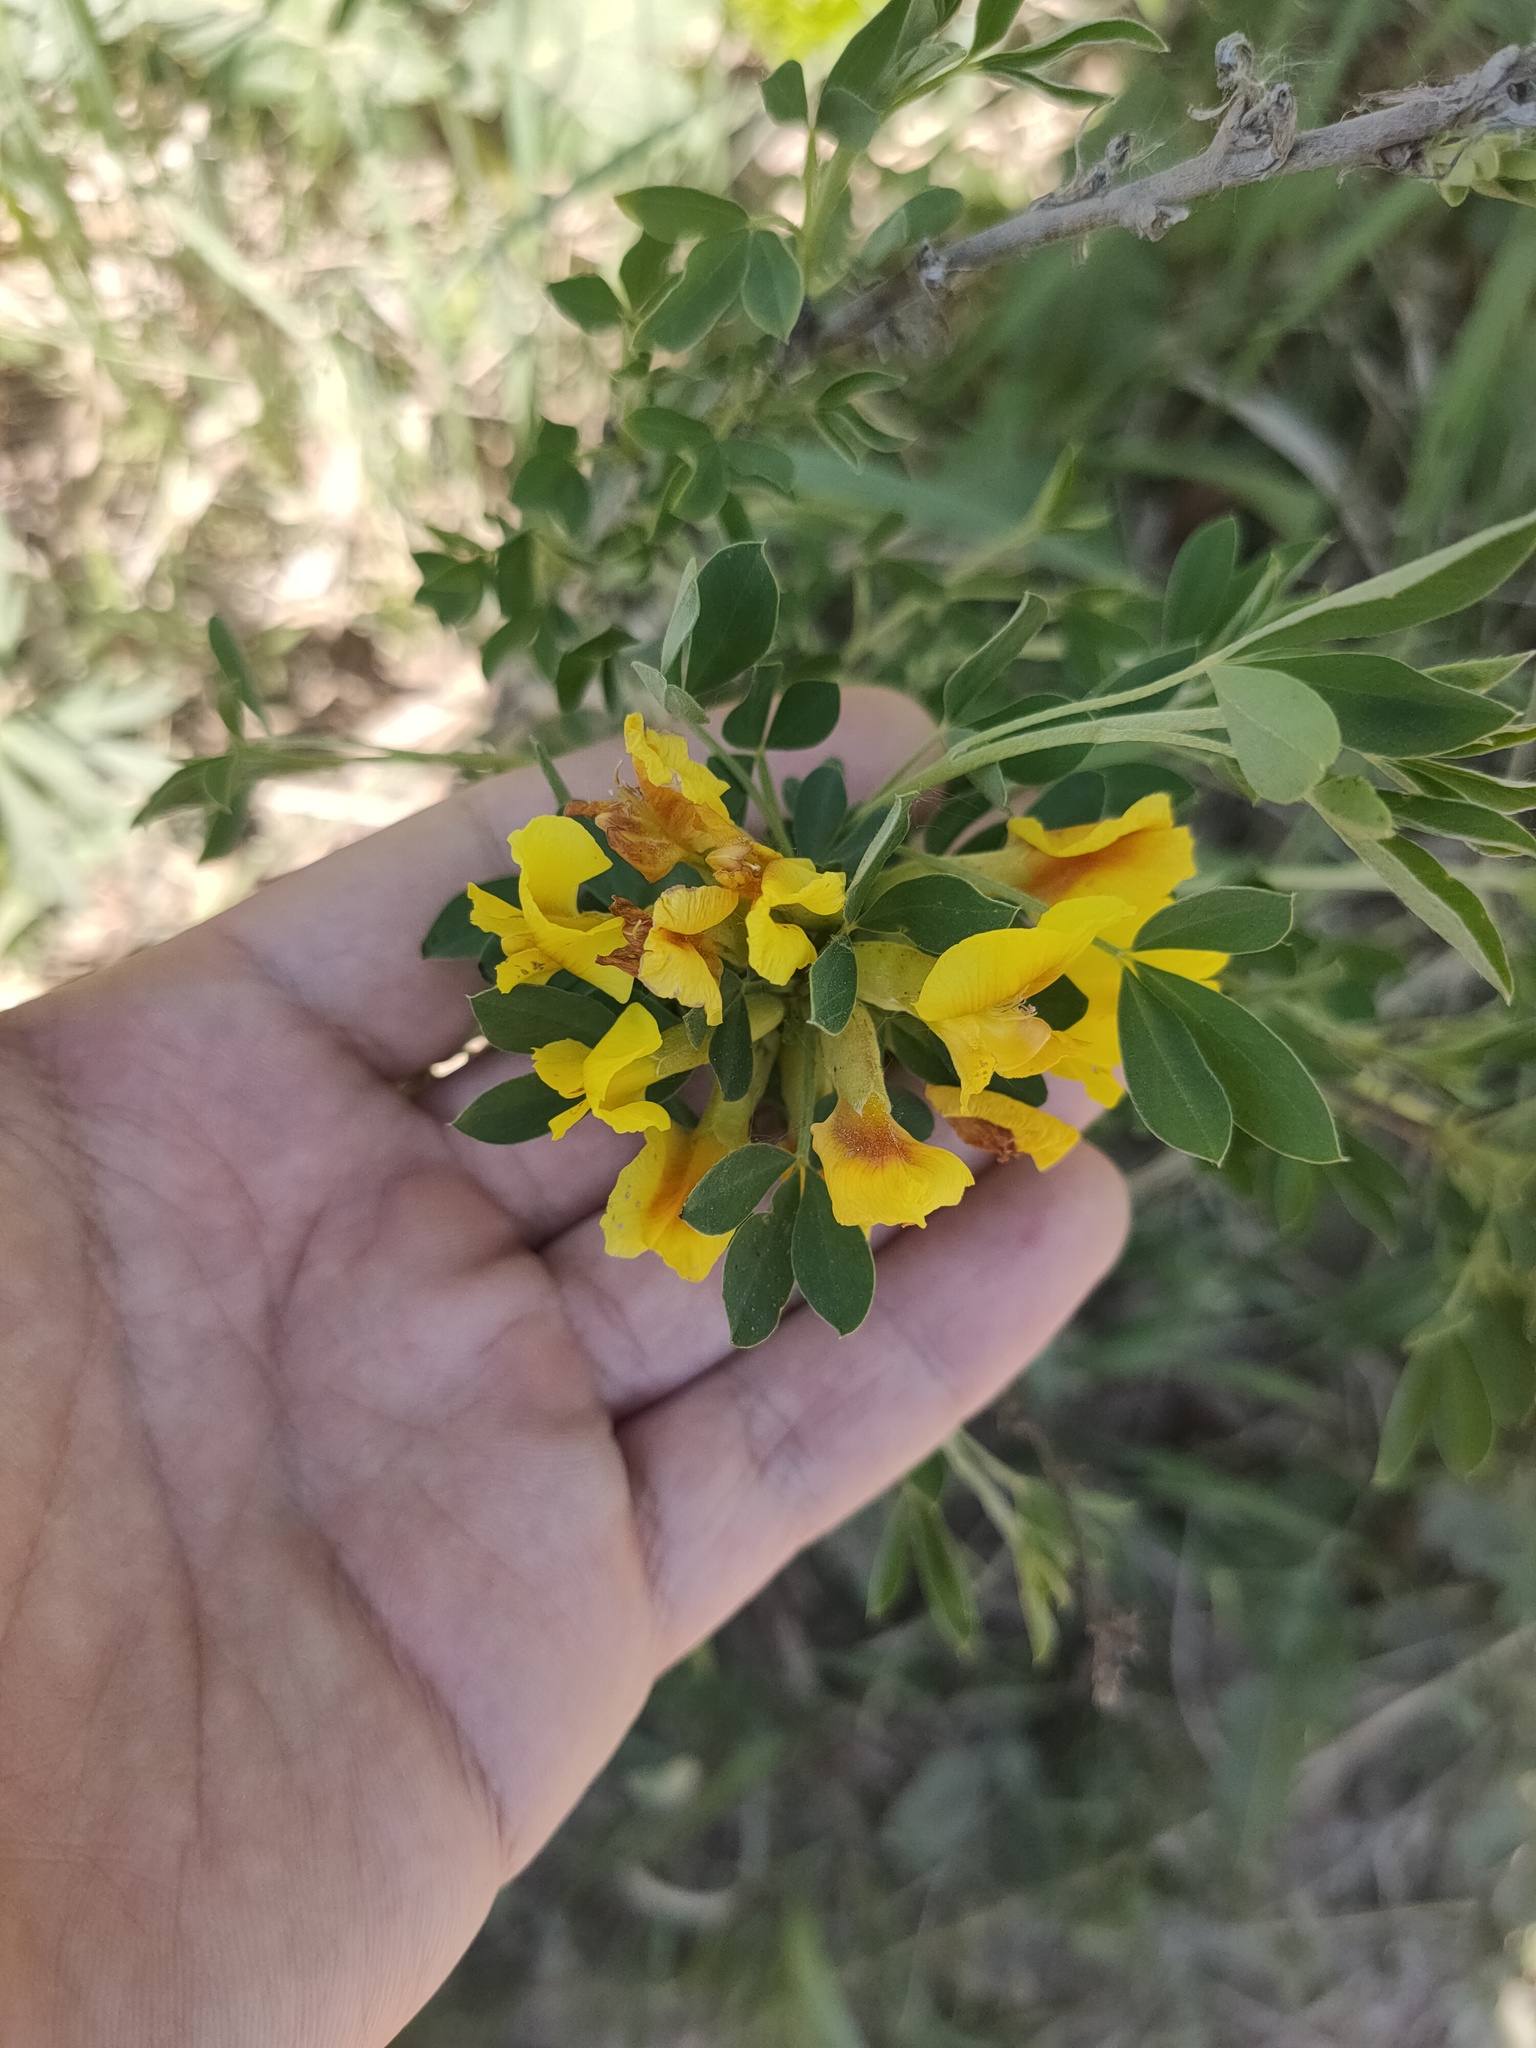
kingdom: Plantae
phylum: Tracheophyta
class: Magnoliopsida
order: Fabales
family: Fabaceae
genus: Chamaecytisus
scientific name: Chamaecytisus ruthenicus
